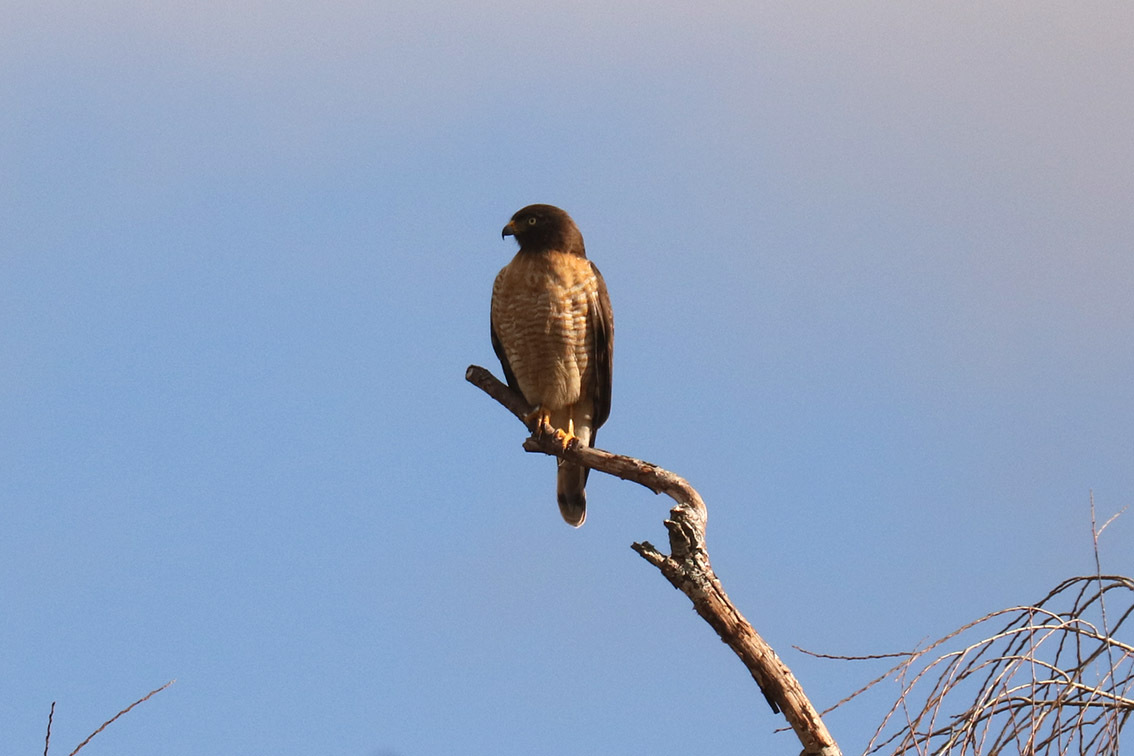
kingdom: Animalia
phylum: Chordata
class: Aves
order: Accipitriformes
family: Accipitridae
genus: Rupornis
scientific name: Rupornis magnirostris
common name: Roadside hawk
